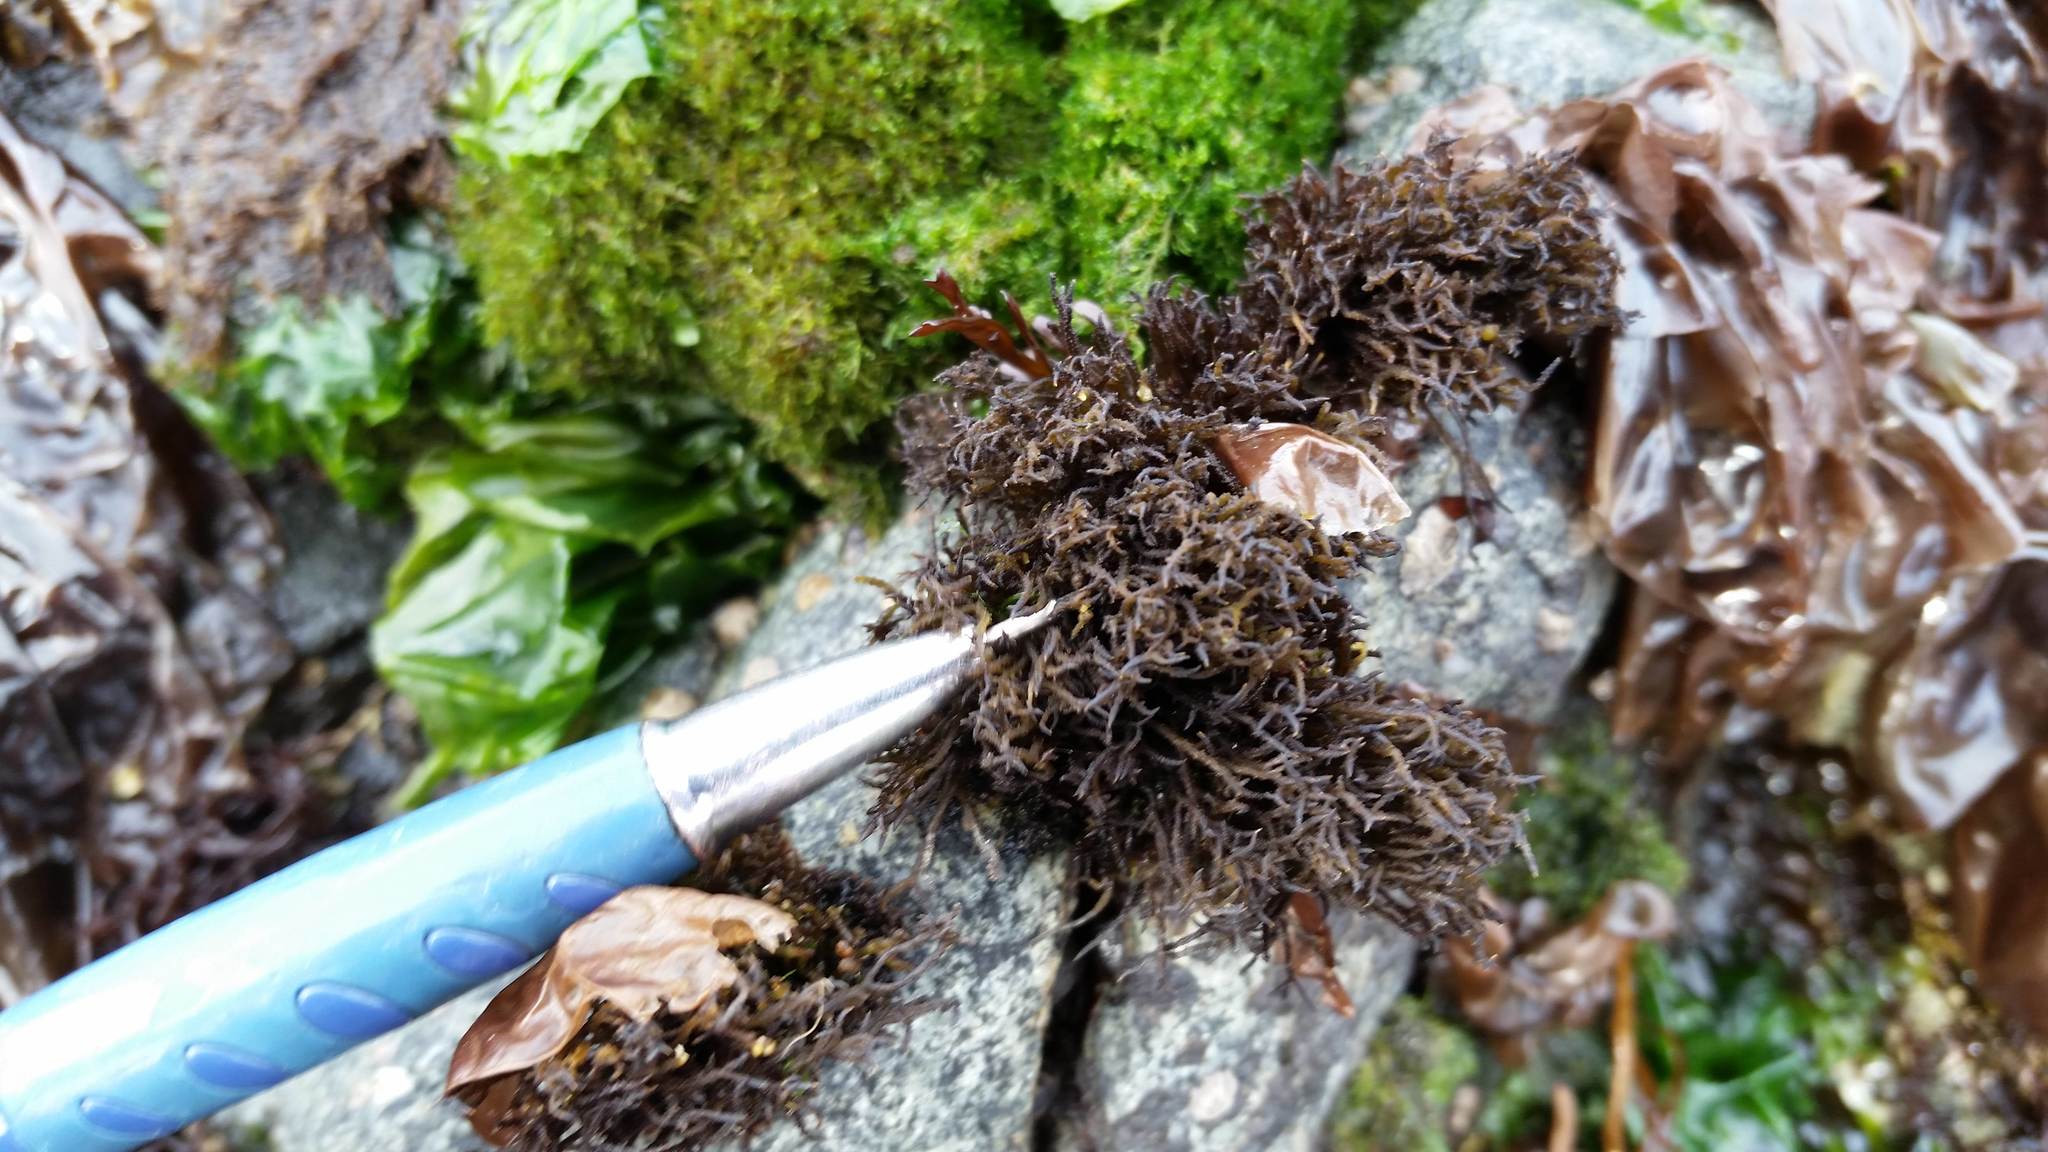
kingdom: Plantae
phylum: Rhodophyta
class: Florideophyceae
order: Gigartinales
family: Endocladiaceae
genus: Endocladia
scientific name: Endocladia muricata
